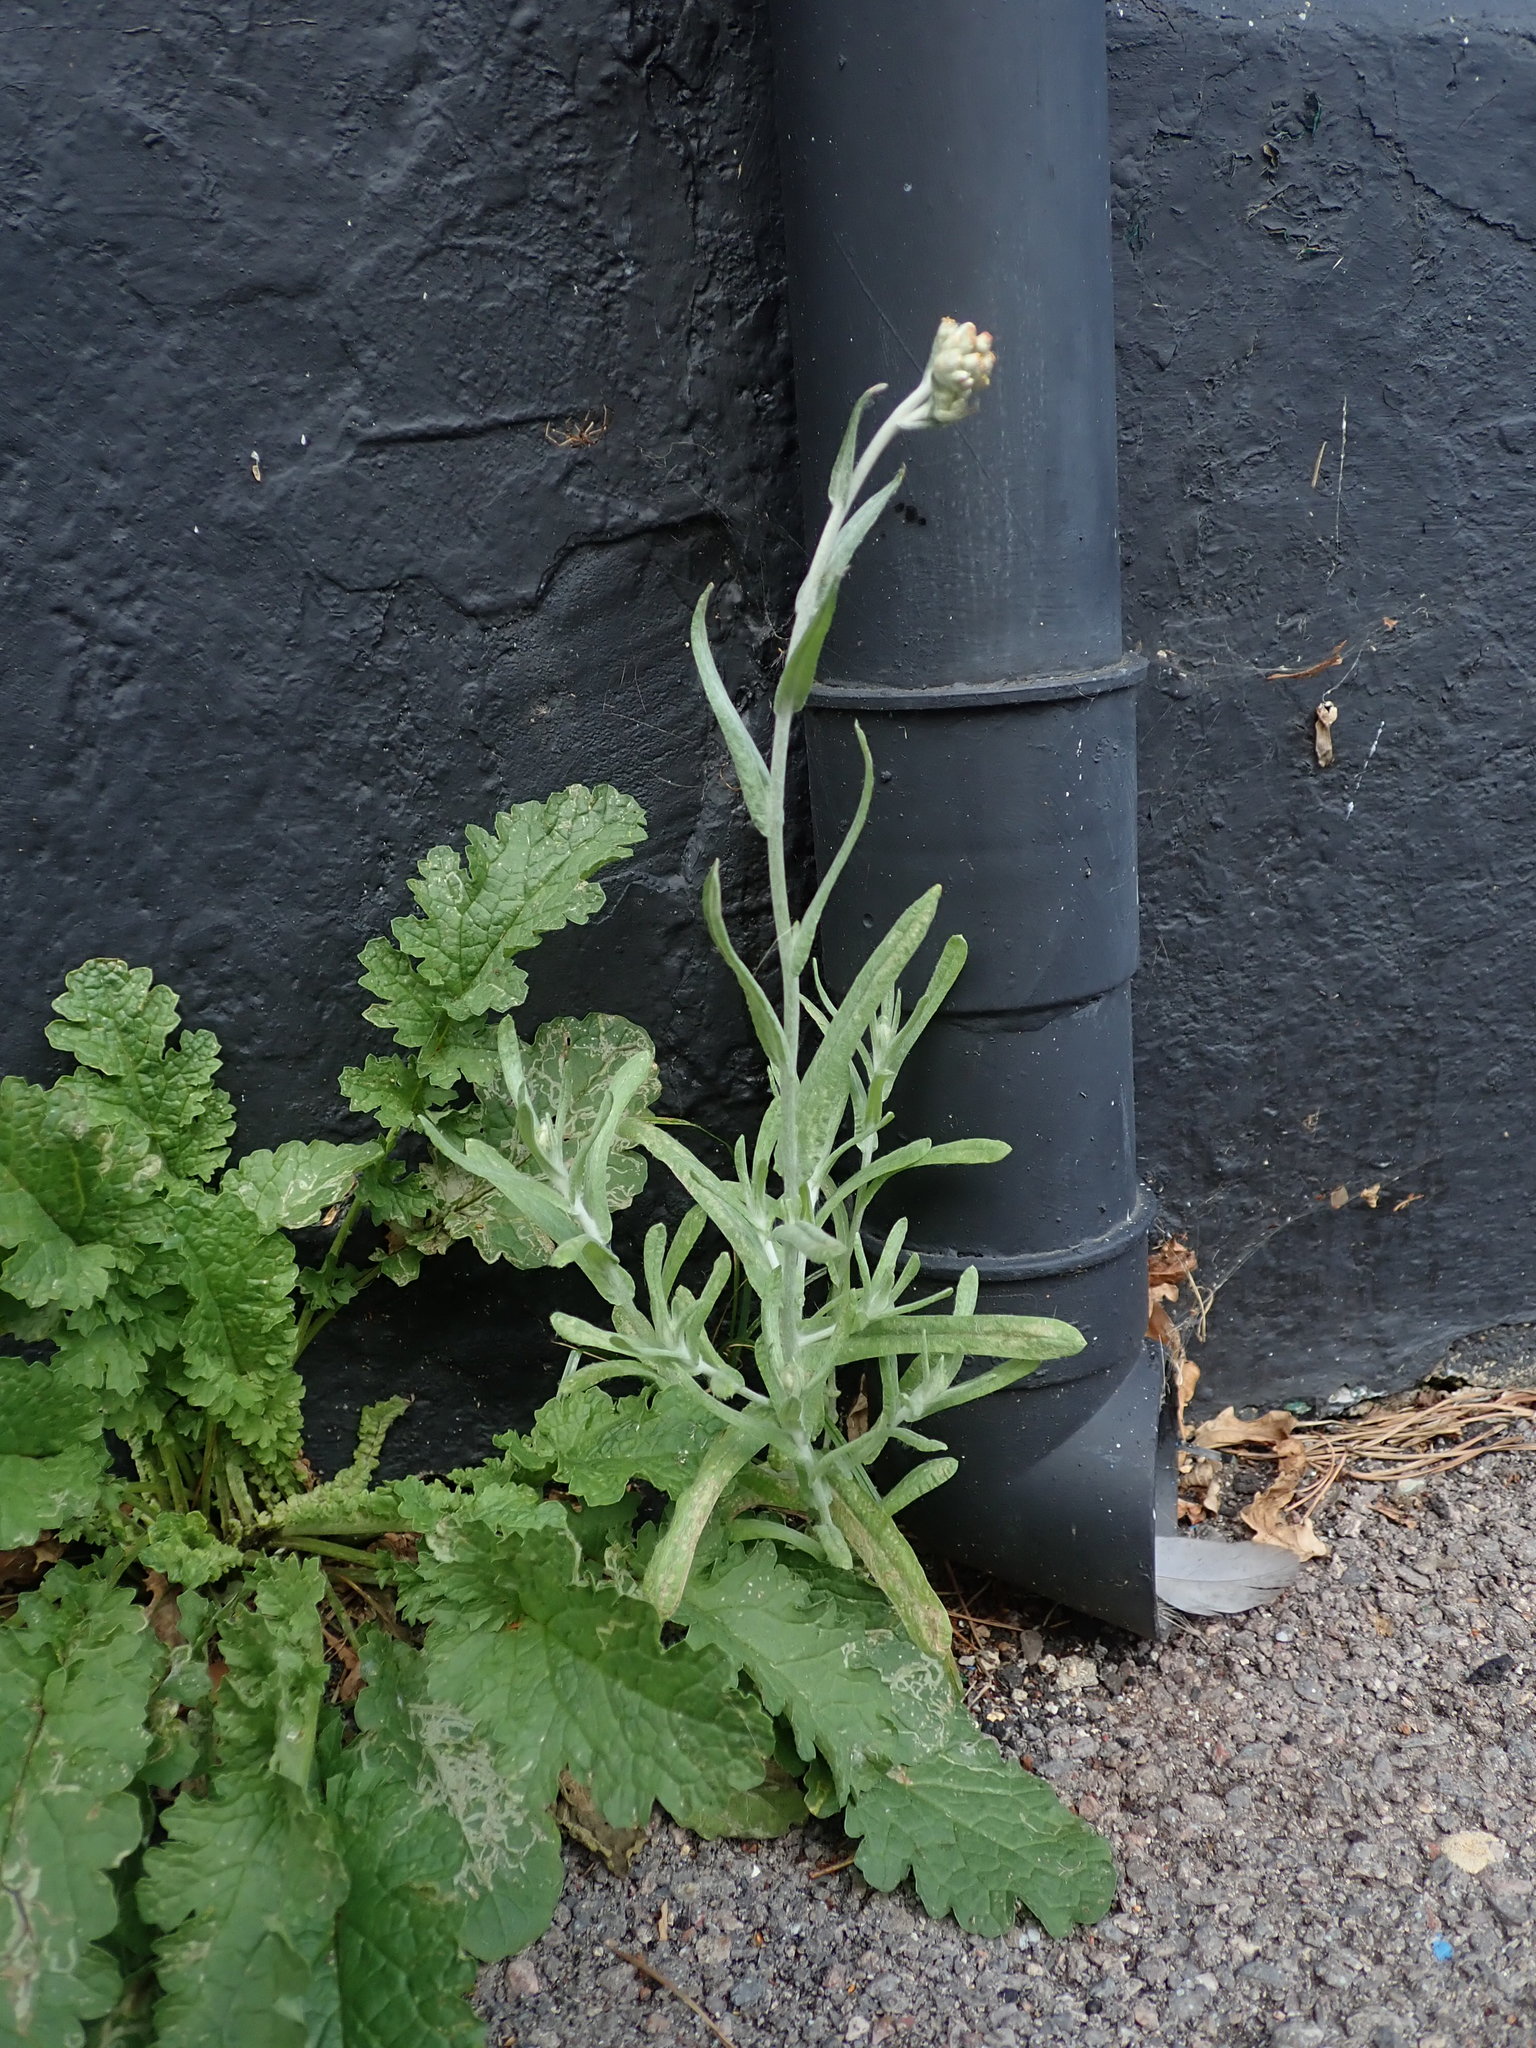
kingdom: Plantae
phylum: Tracheophyta
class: Magnoliopsida
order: Asterales
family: Asteraceae
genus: Helichrysum
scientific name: Helichrysum luteoalbum
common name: Daisy
